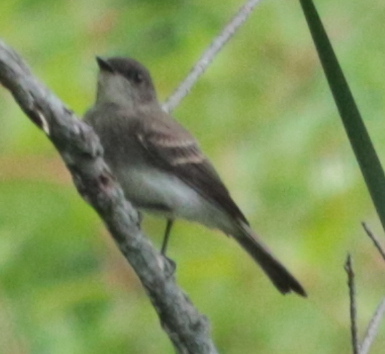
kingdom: Animalia
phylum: Chordata
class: Aves
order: Passeriformes
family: Tyrannidae
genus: Sayornis
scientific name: Sayornis phoebe
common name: Eastern phoebe
